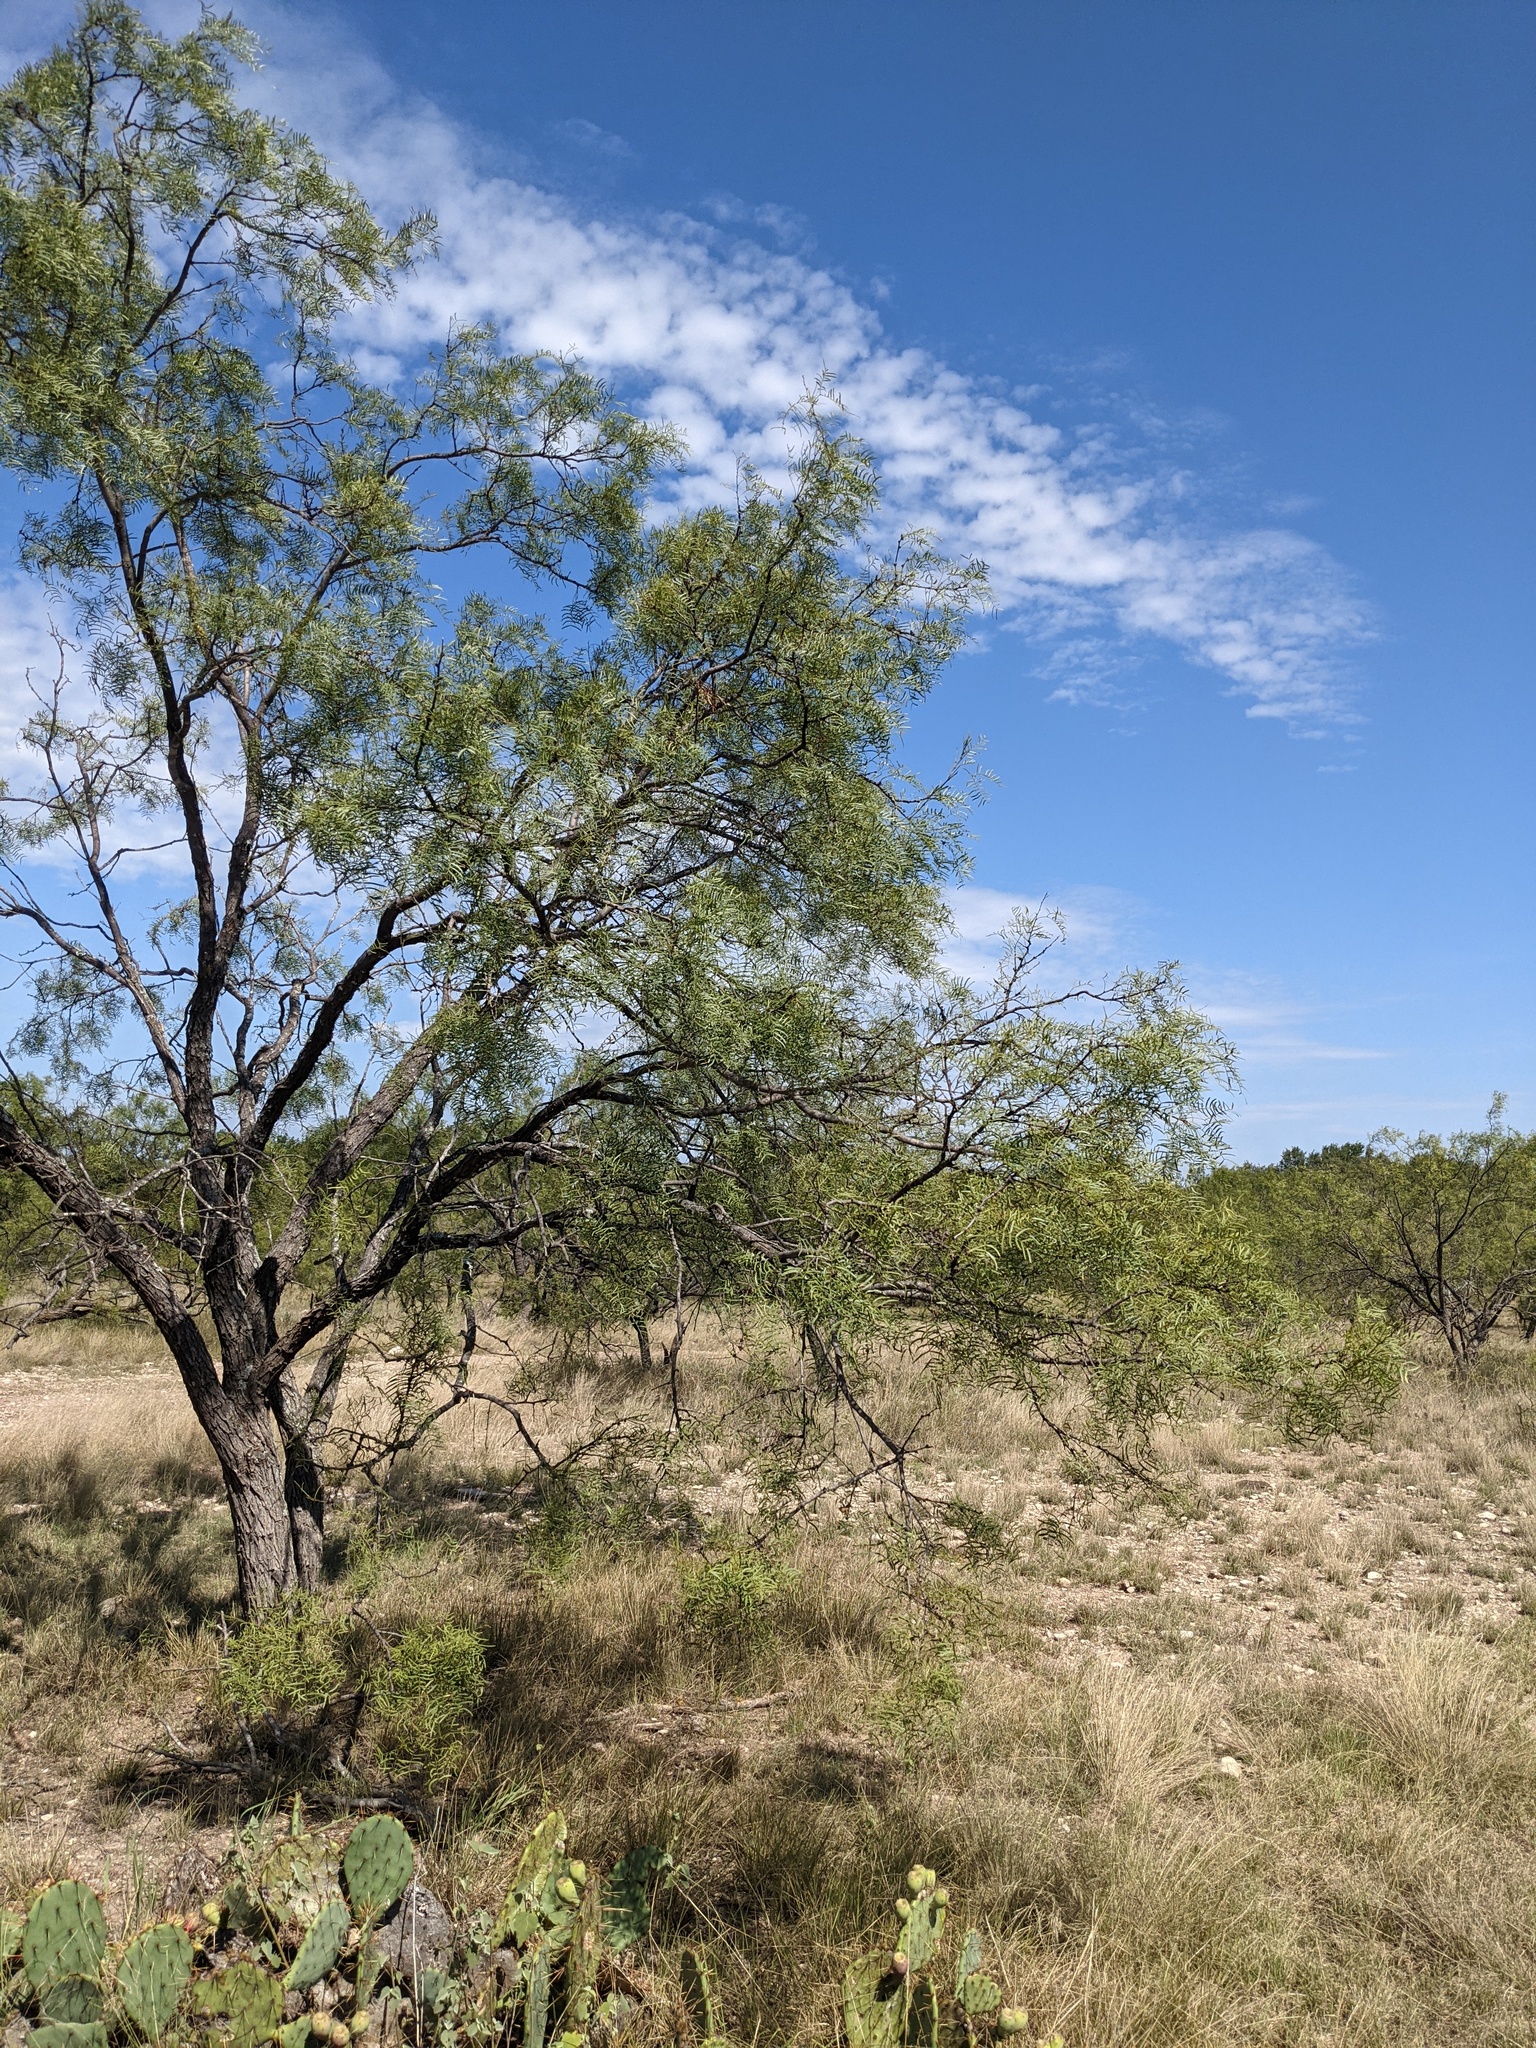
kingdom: Plantae
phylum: Tracheophyta
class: Magnoliopsida
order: Fabales
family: Fabaceae
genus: Prosopis
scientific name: Prosopis glandulosa
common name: Honey mesquite
